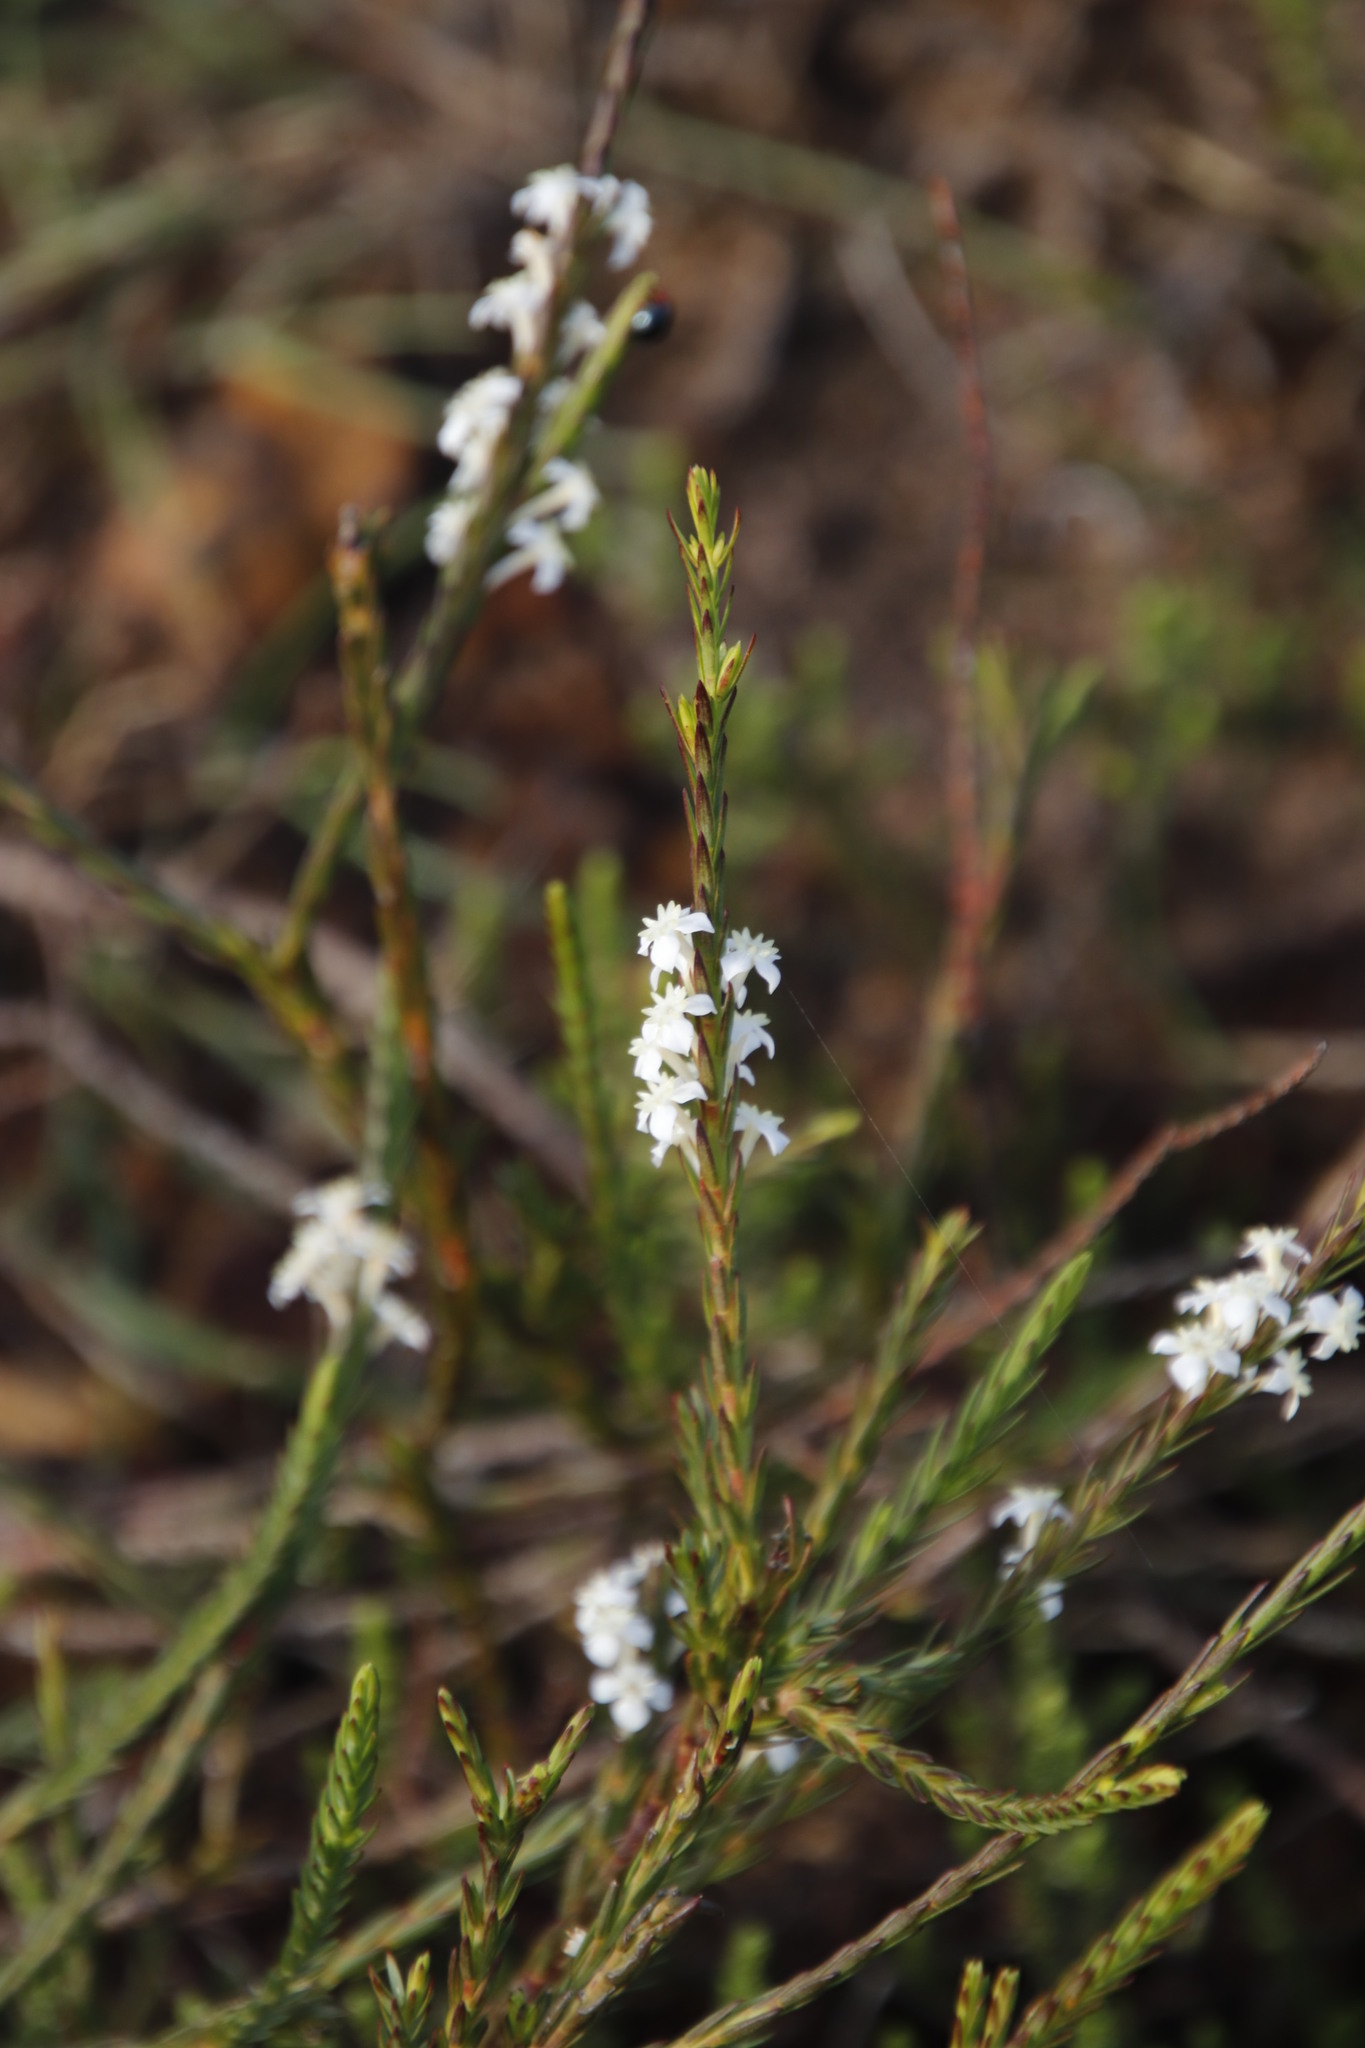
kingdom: Plantae
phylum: Tracheophyta
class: Magnoliopsida
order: Malvales
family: Thymelaeaceae
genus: Struthiola
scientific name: Struthiola dodecandra
